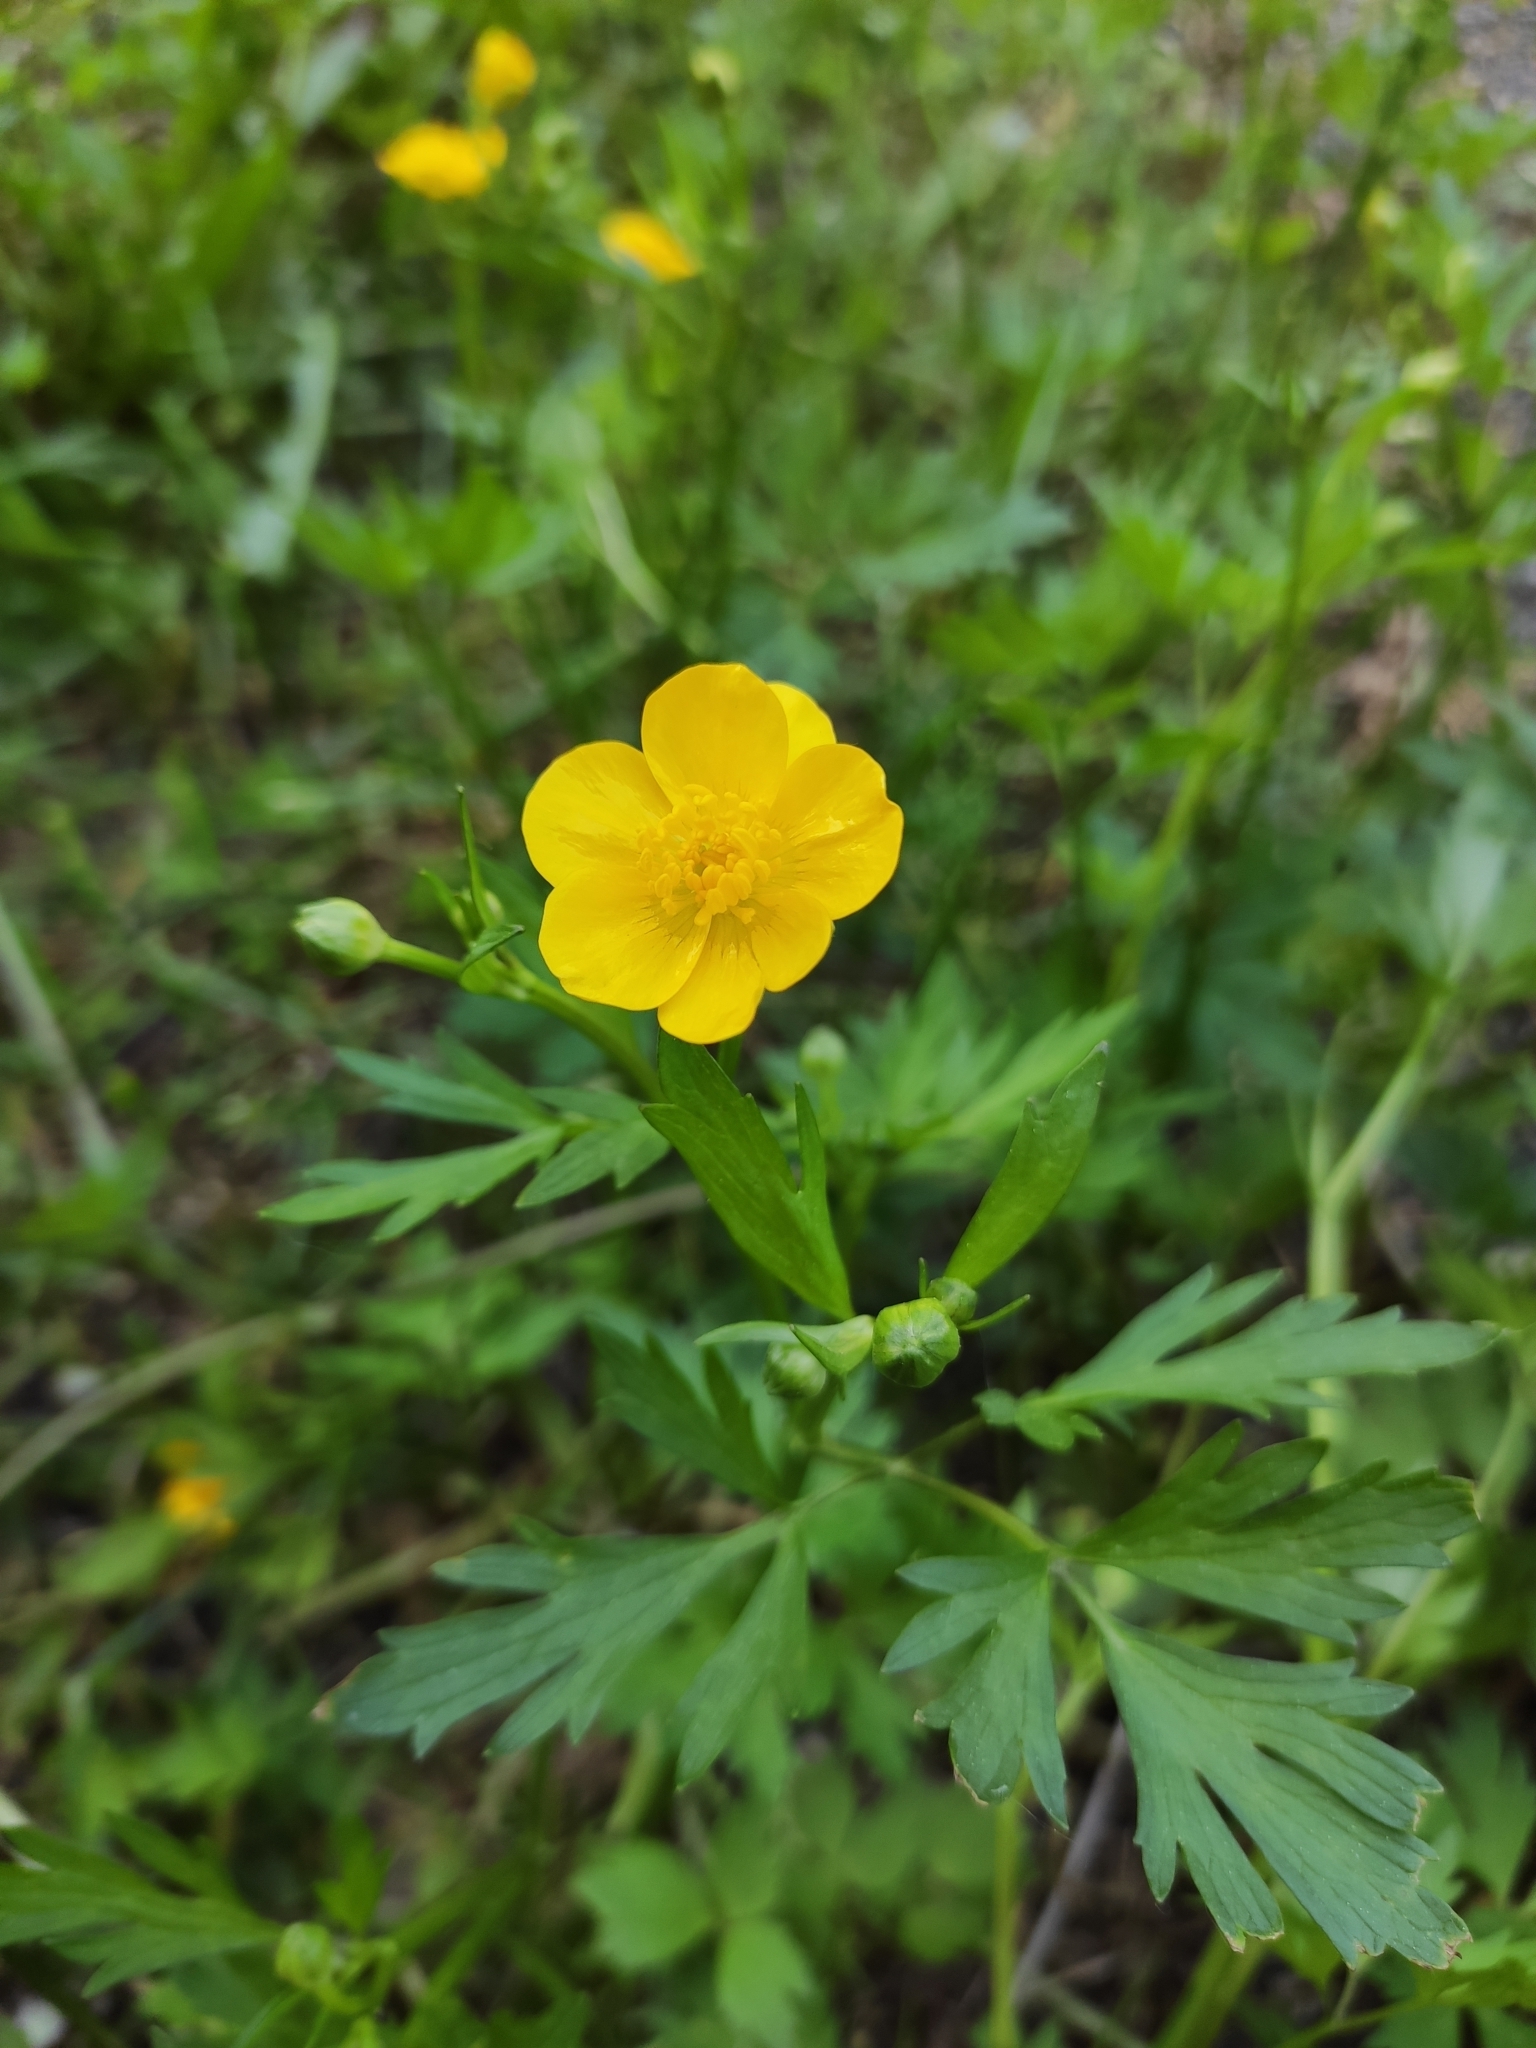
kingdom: Plantae
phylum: Tracheophyta
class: Magnoliopsida
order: Ranunculales
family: Ranunculaceae
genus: Ranunculus
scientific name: Ranunculus repens
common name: Creeping buttercup
